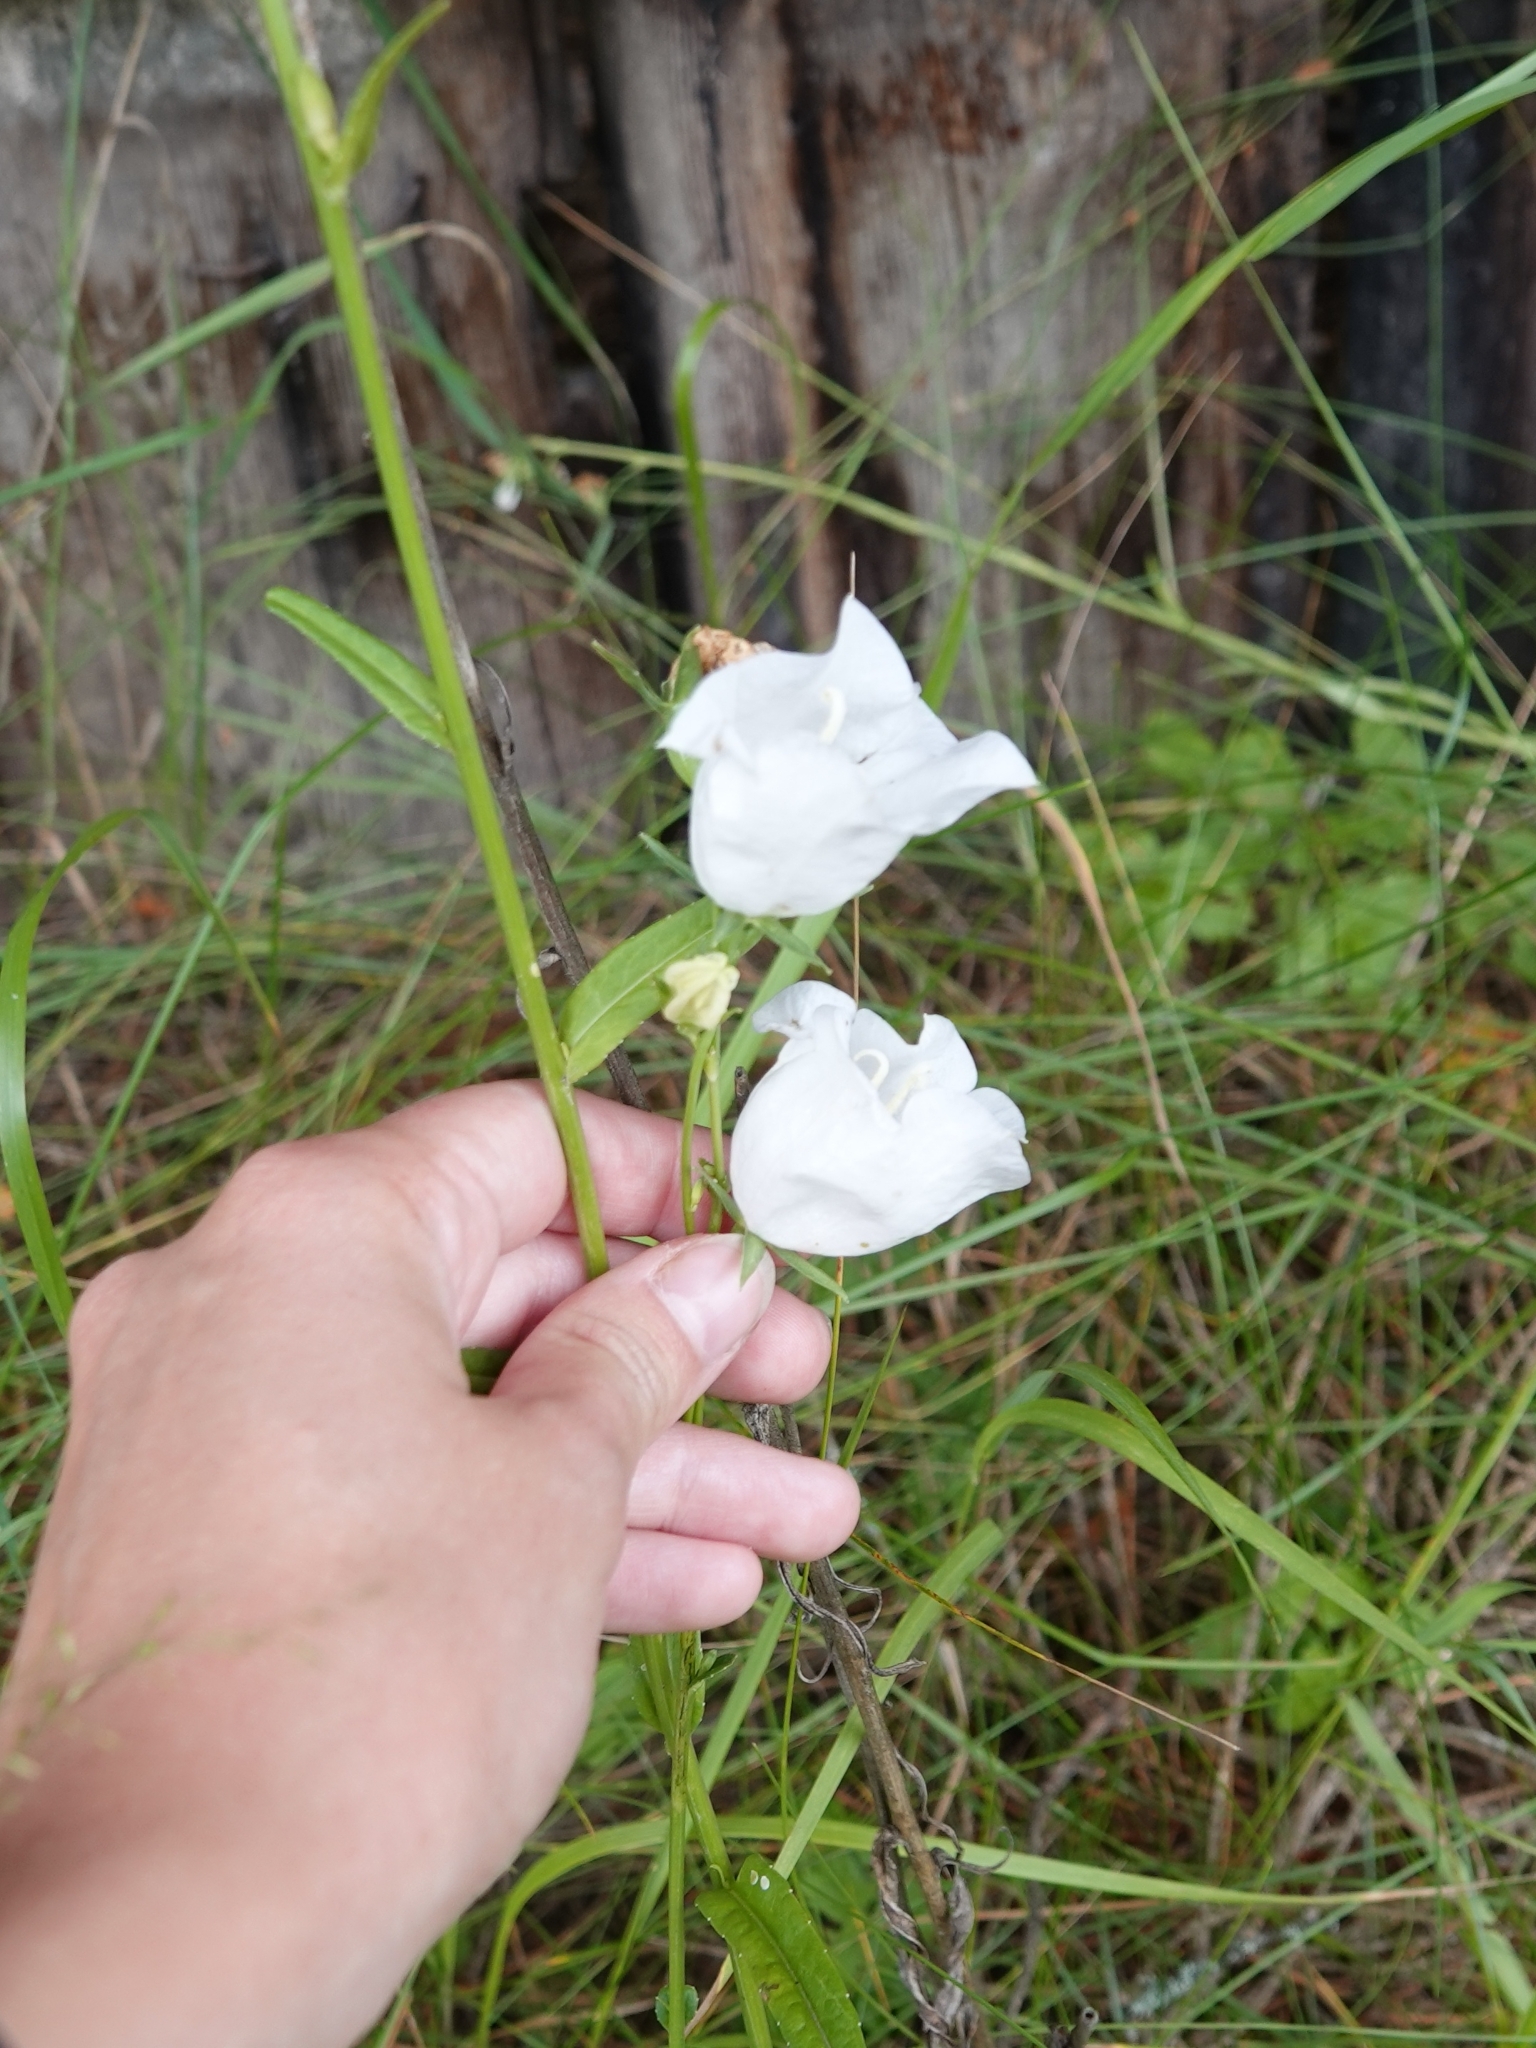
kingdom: Plantae
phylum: Tracheophyta
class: Magnoliopsida
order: Asterales
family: Campanulaceae
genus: Campanula
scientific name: Campanula persicifolia
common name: Peach-leaved bellflower
